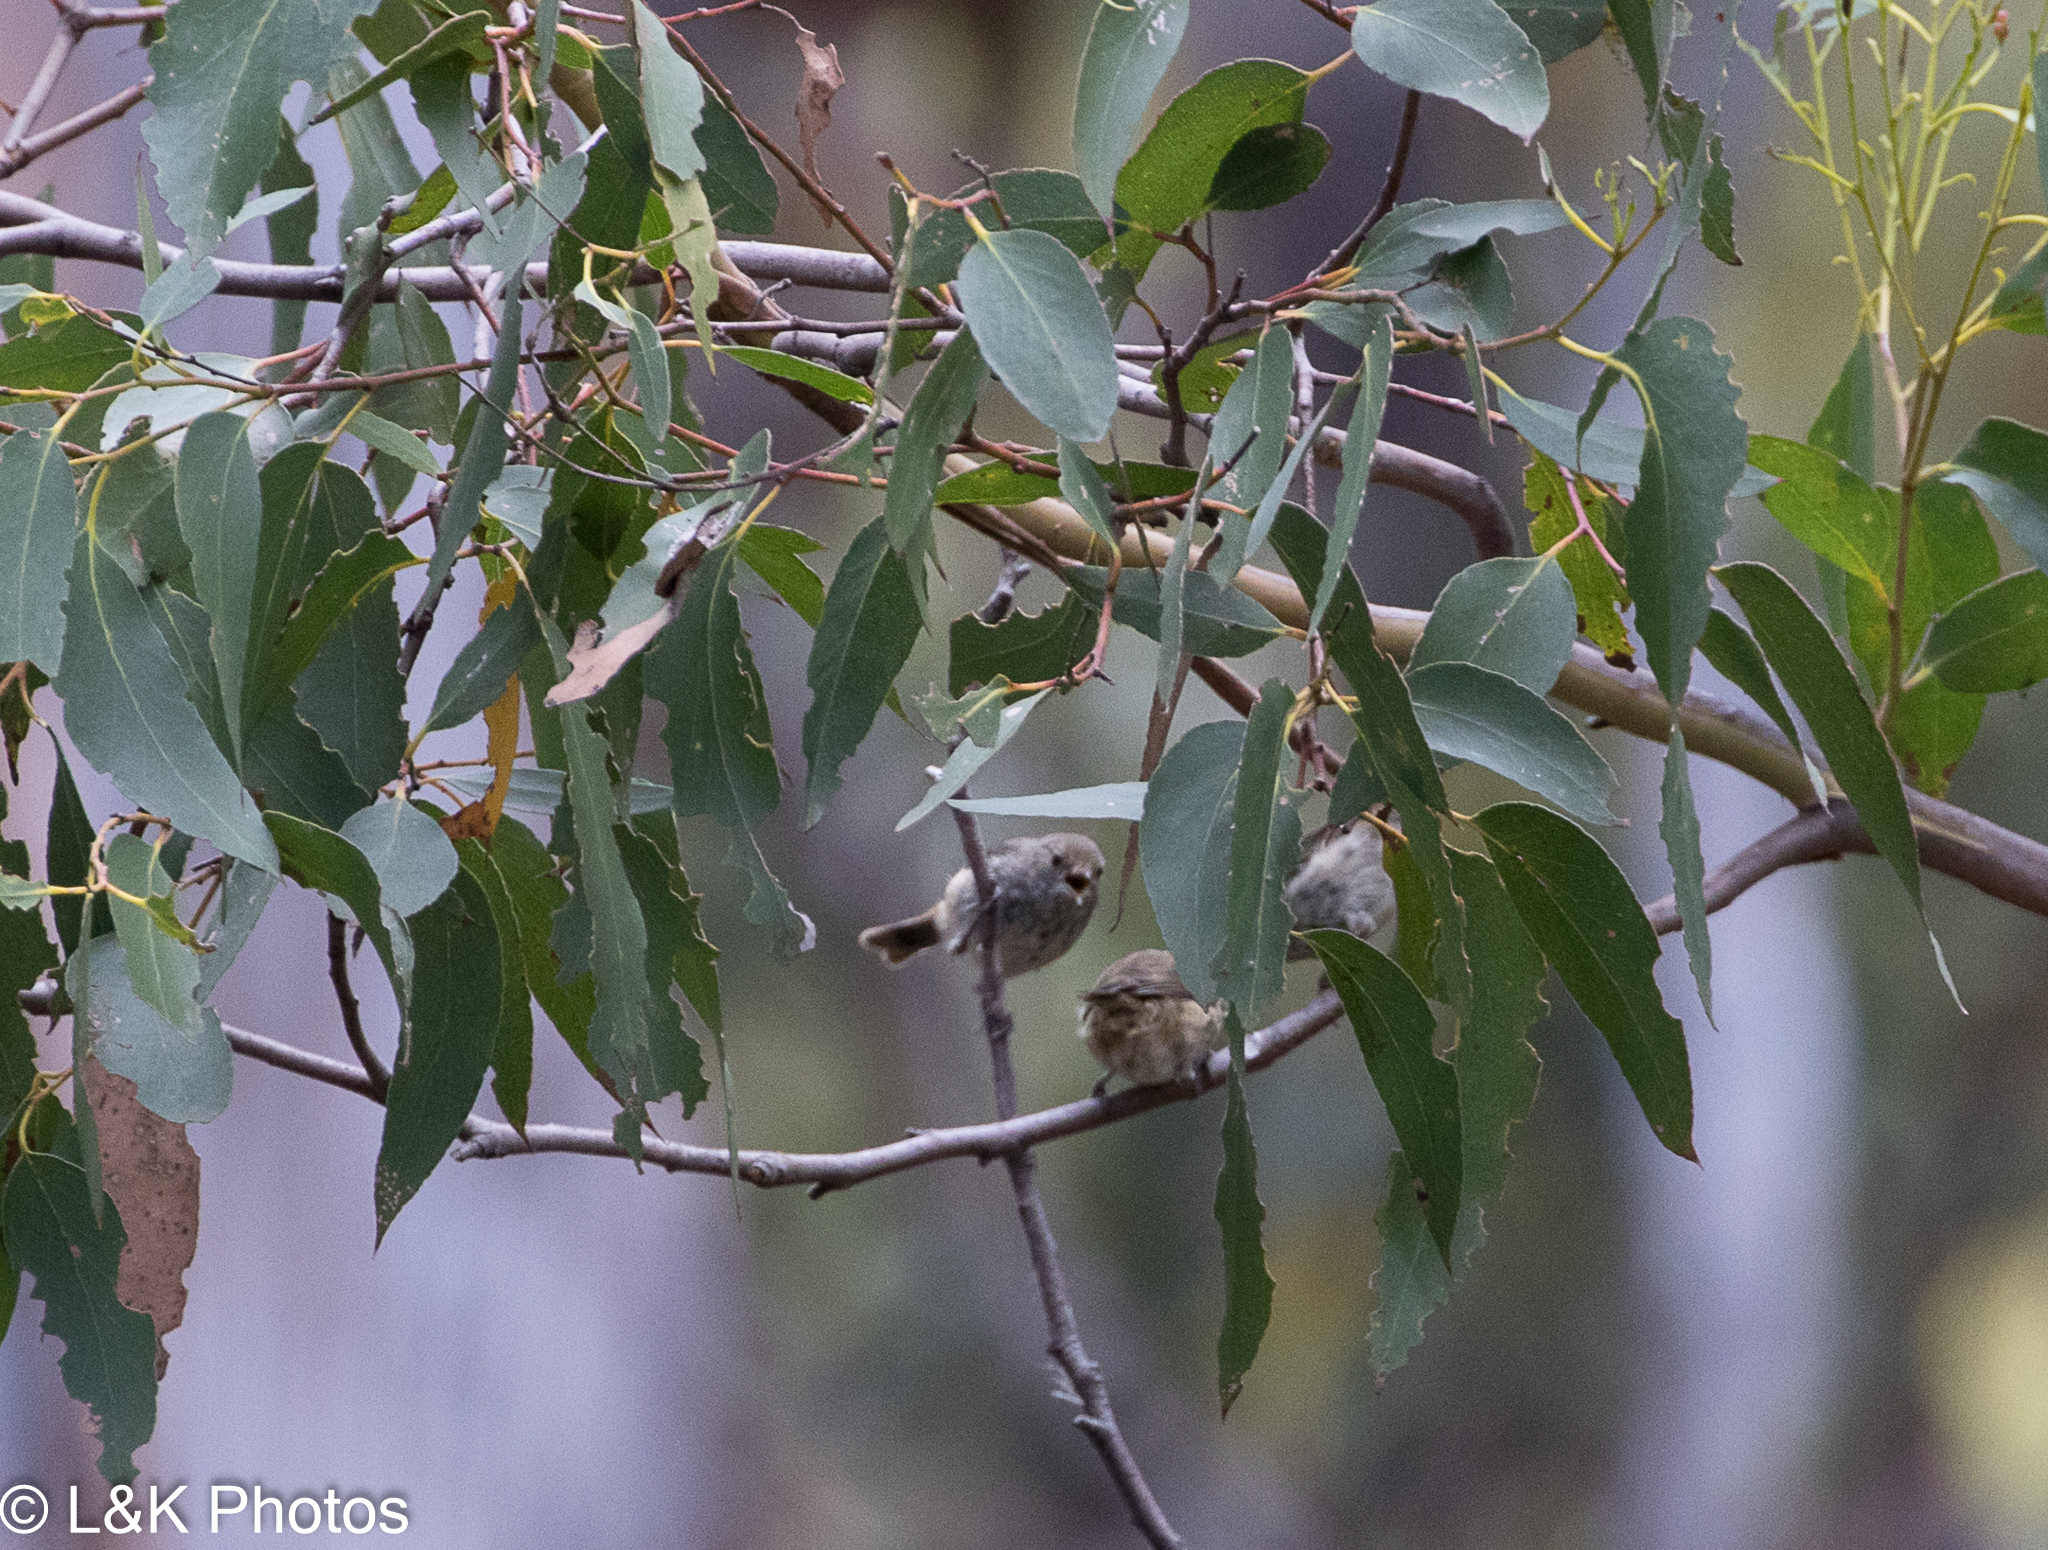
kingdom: Animalia
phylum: Chordata
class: Aves
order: Passeriformes
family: Acanthizidae
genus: Acanthiza
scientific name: Acanthiza pusilla
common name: Brown thornbill
